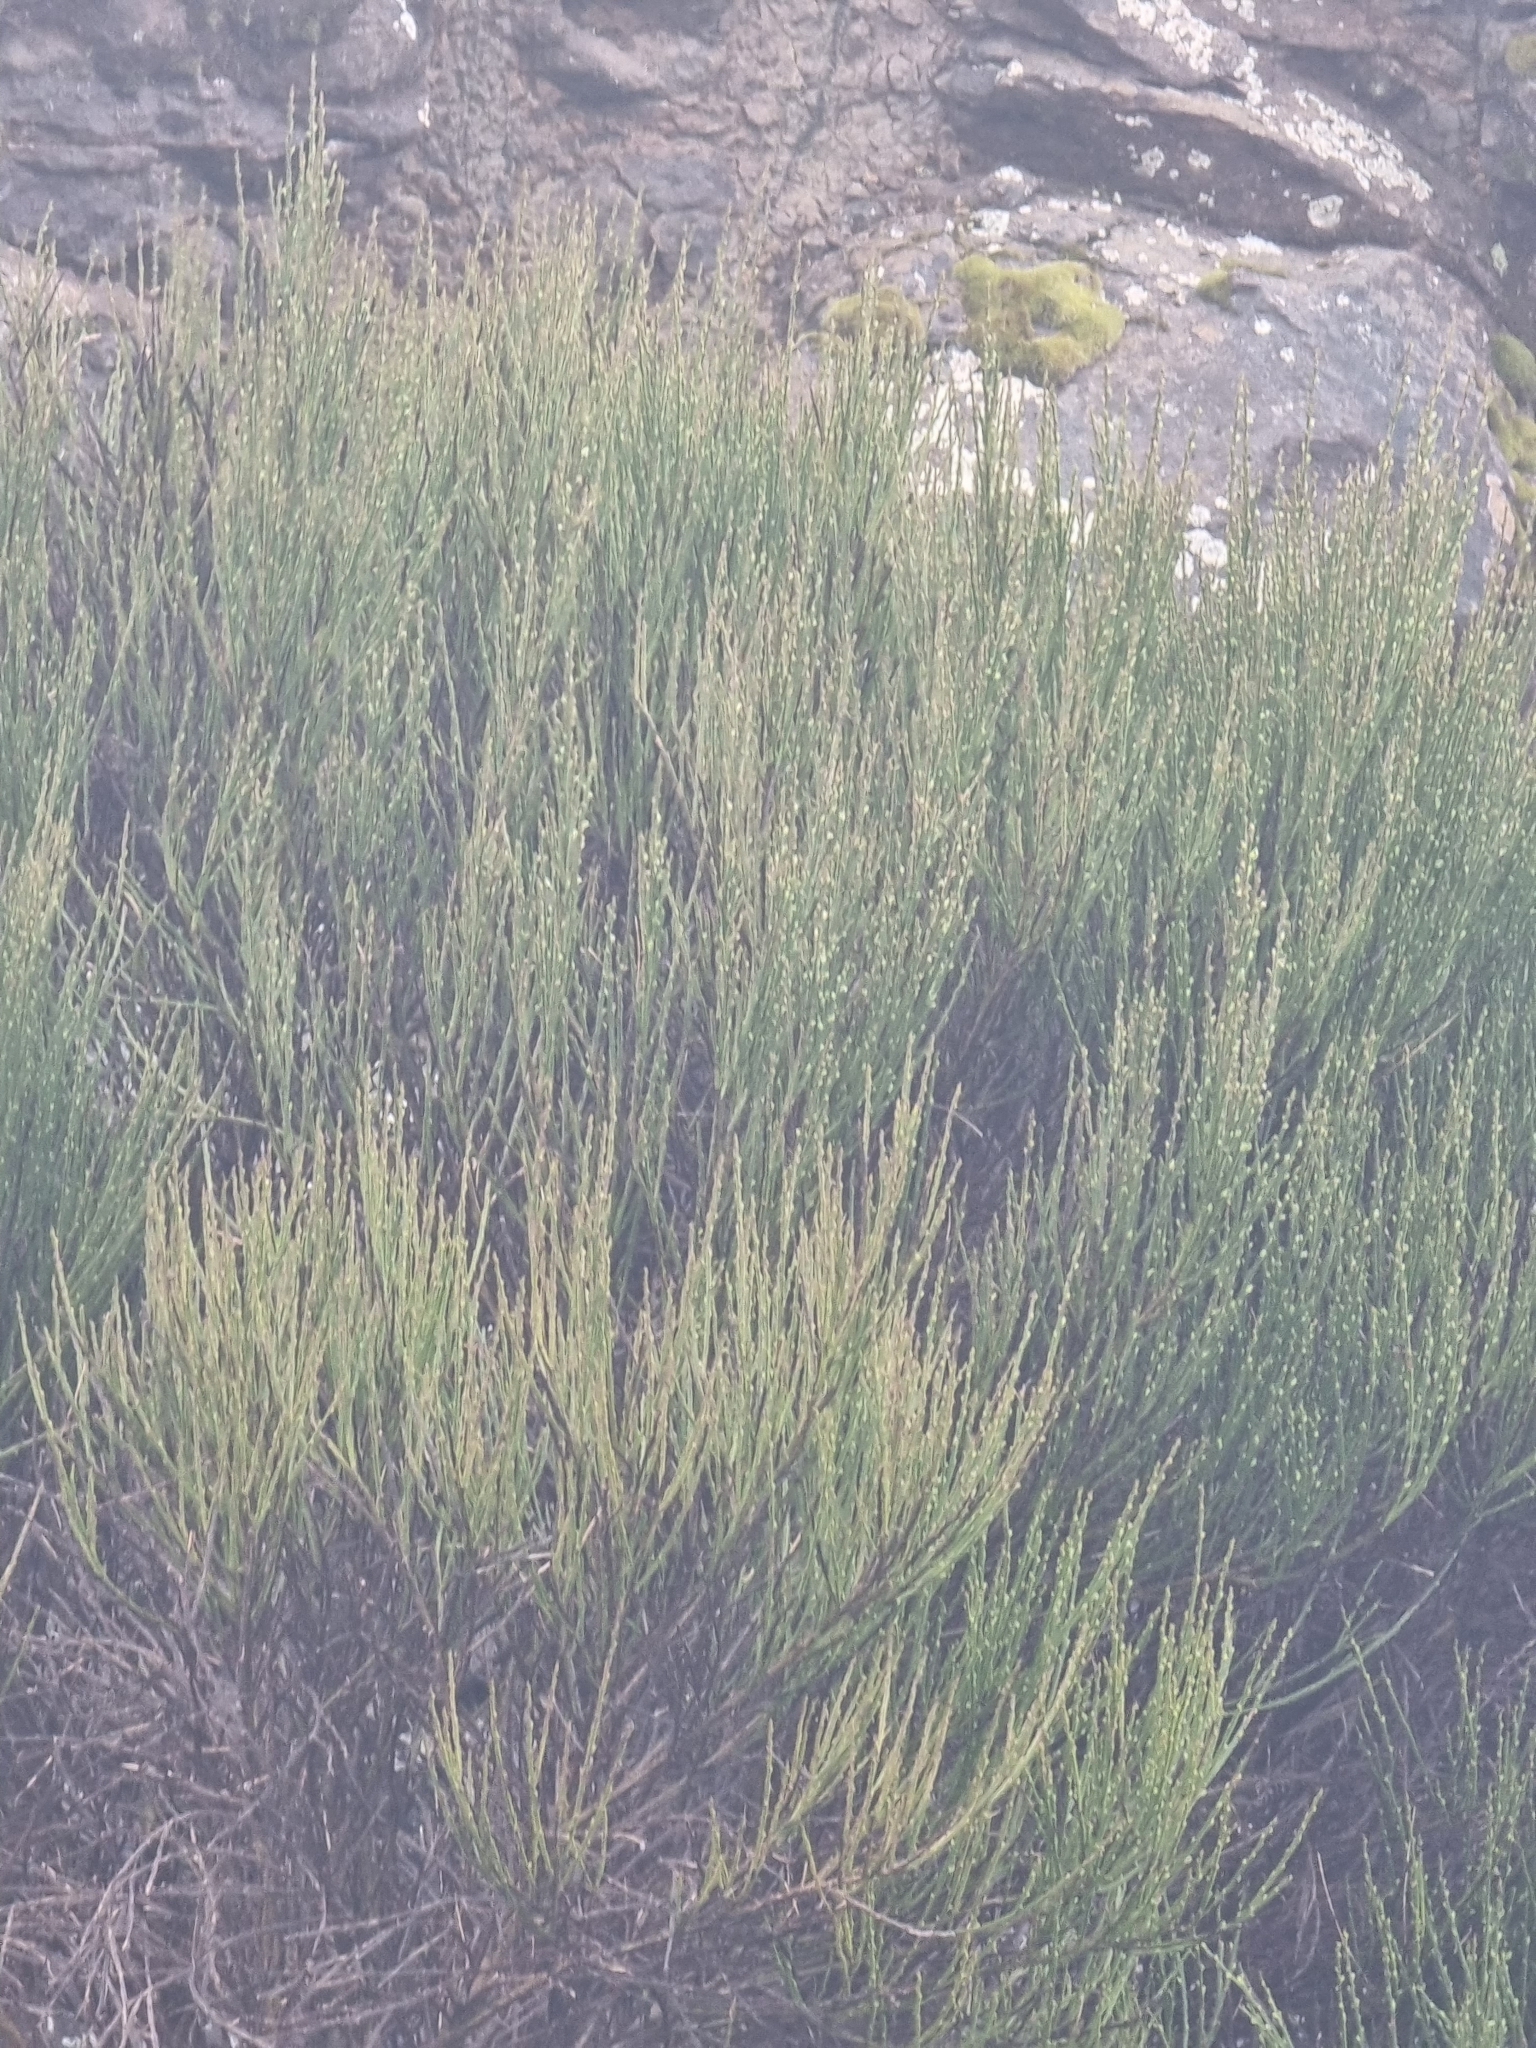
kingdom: Plantae
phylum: Tracheophyta
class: Magnoliopsida
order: Fabales
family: Fabaceae
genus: Cytisus
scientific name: Cytisus scoparius
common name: Scotch broom
